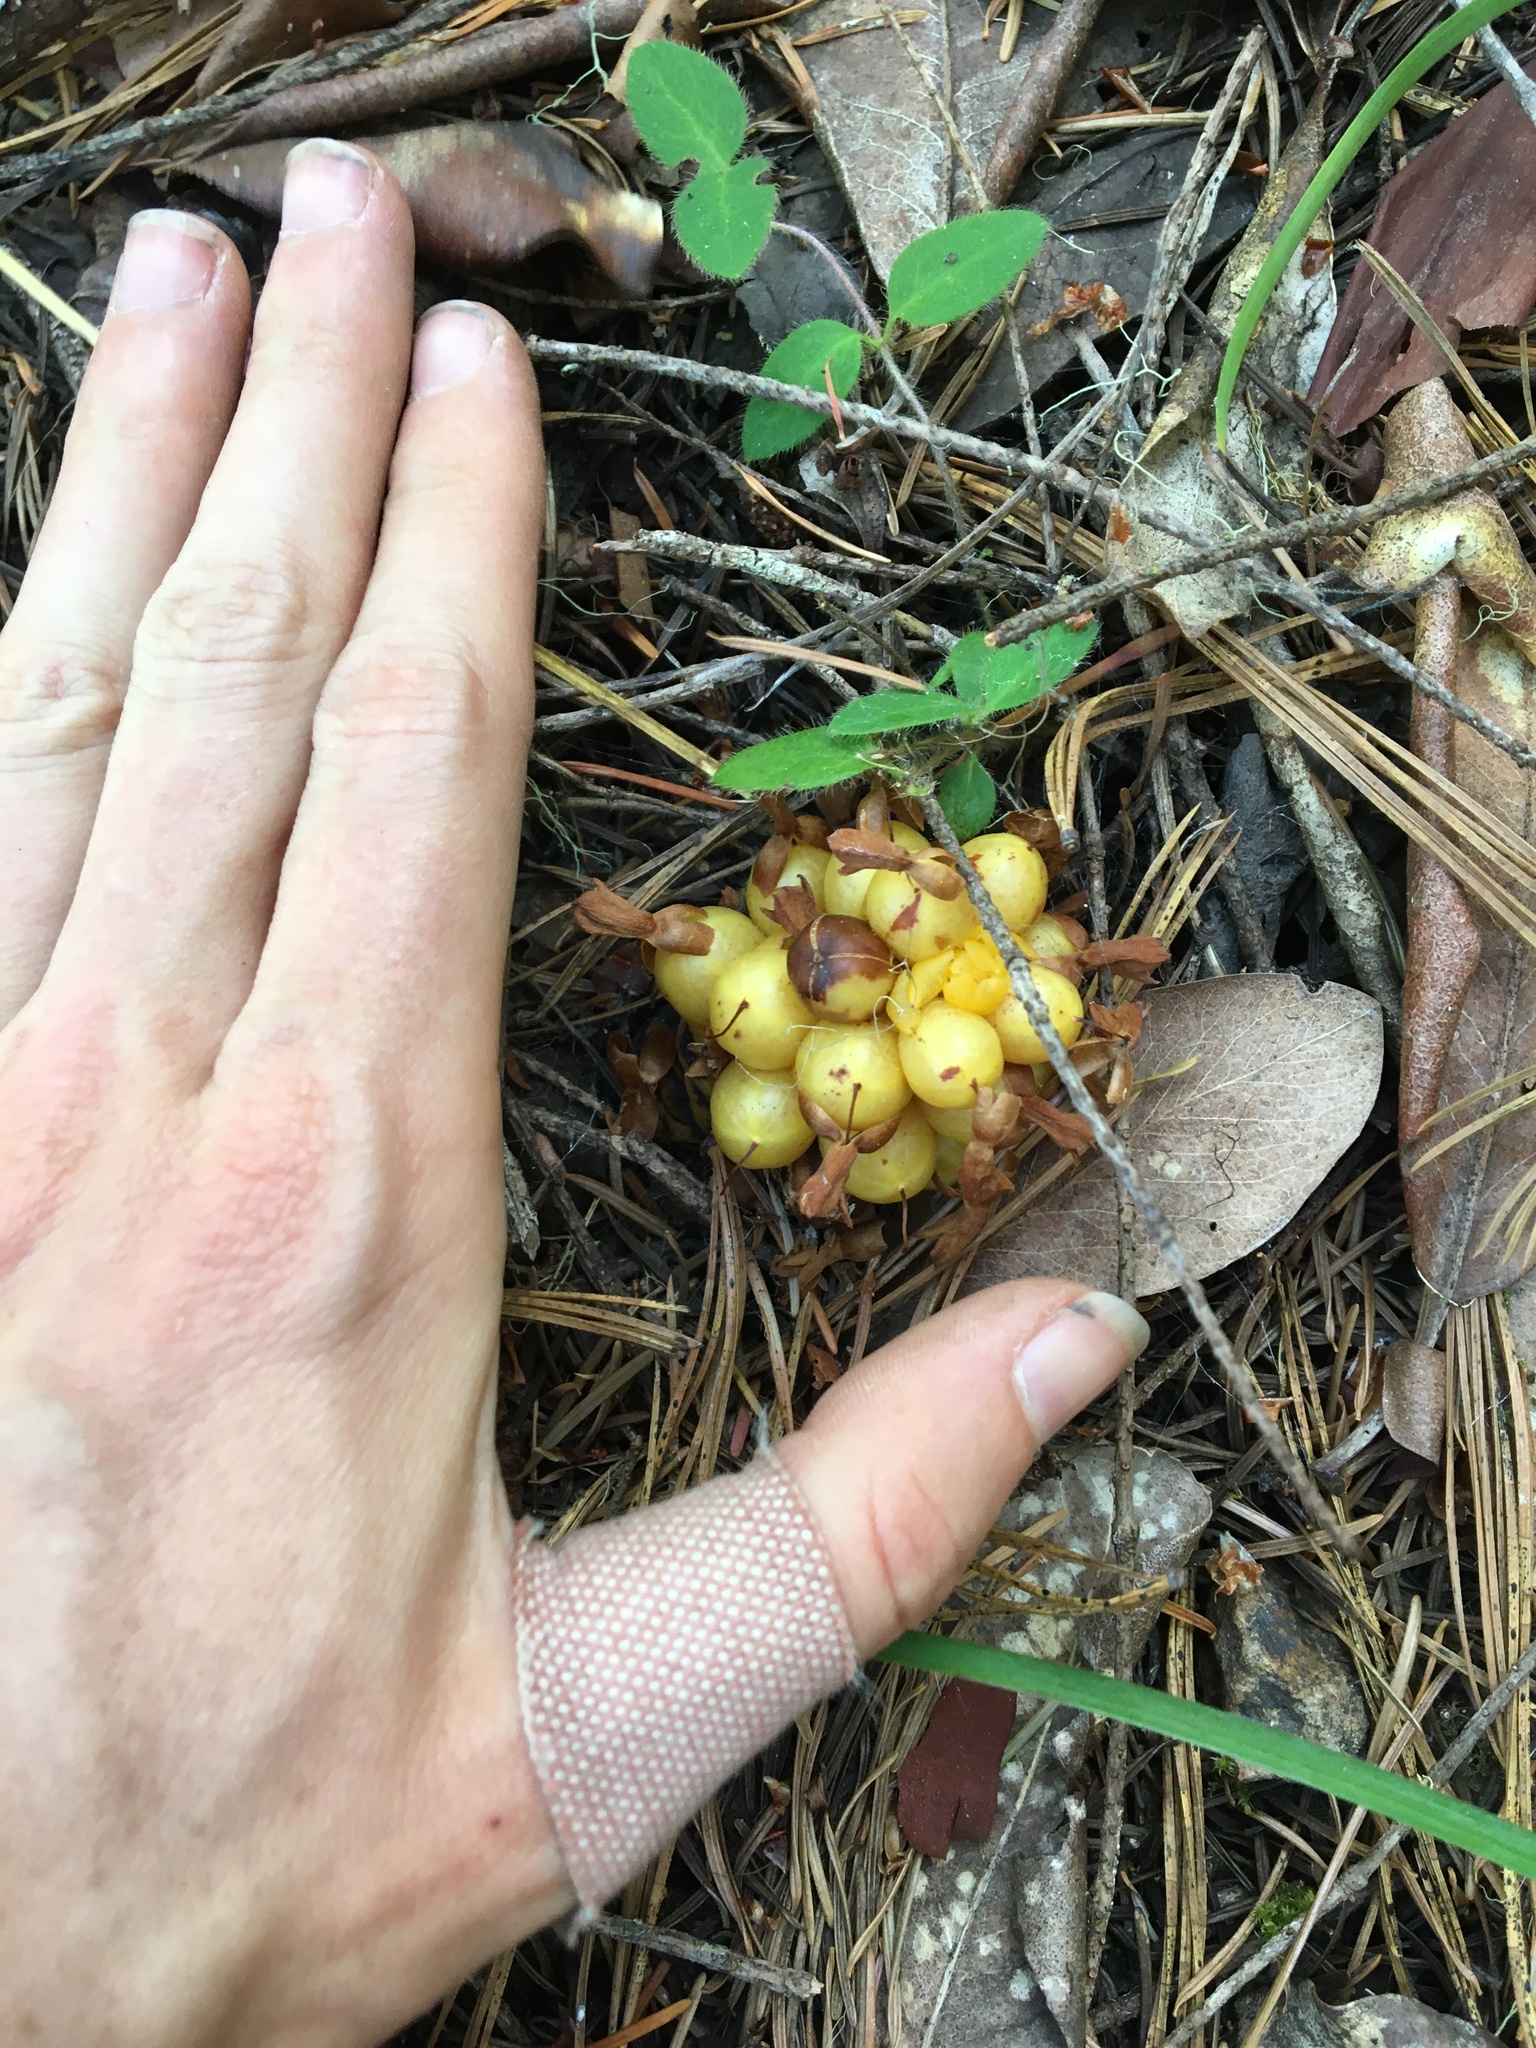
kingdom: Plantae
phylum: Tracheophyta
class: Magnoliopsida
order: Ericales
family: Ericaceae
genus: Hemitomes
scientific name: Hemitomes congestum
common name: Cone plant
